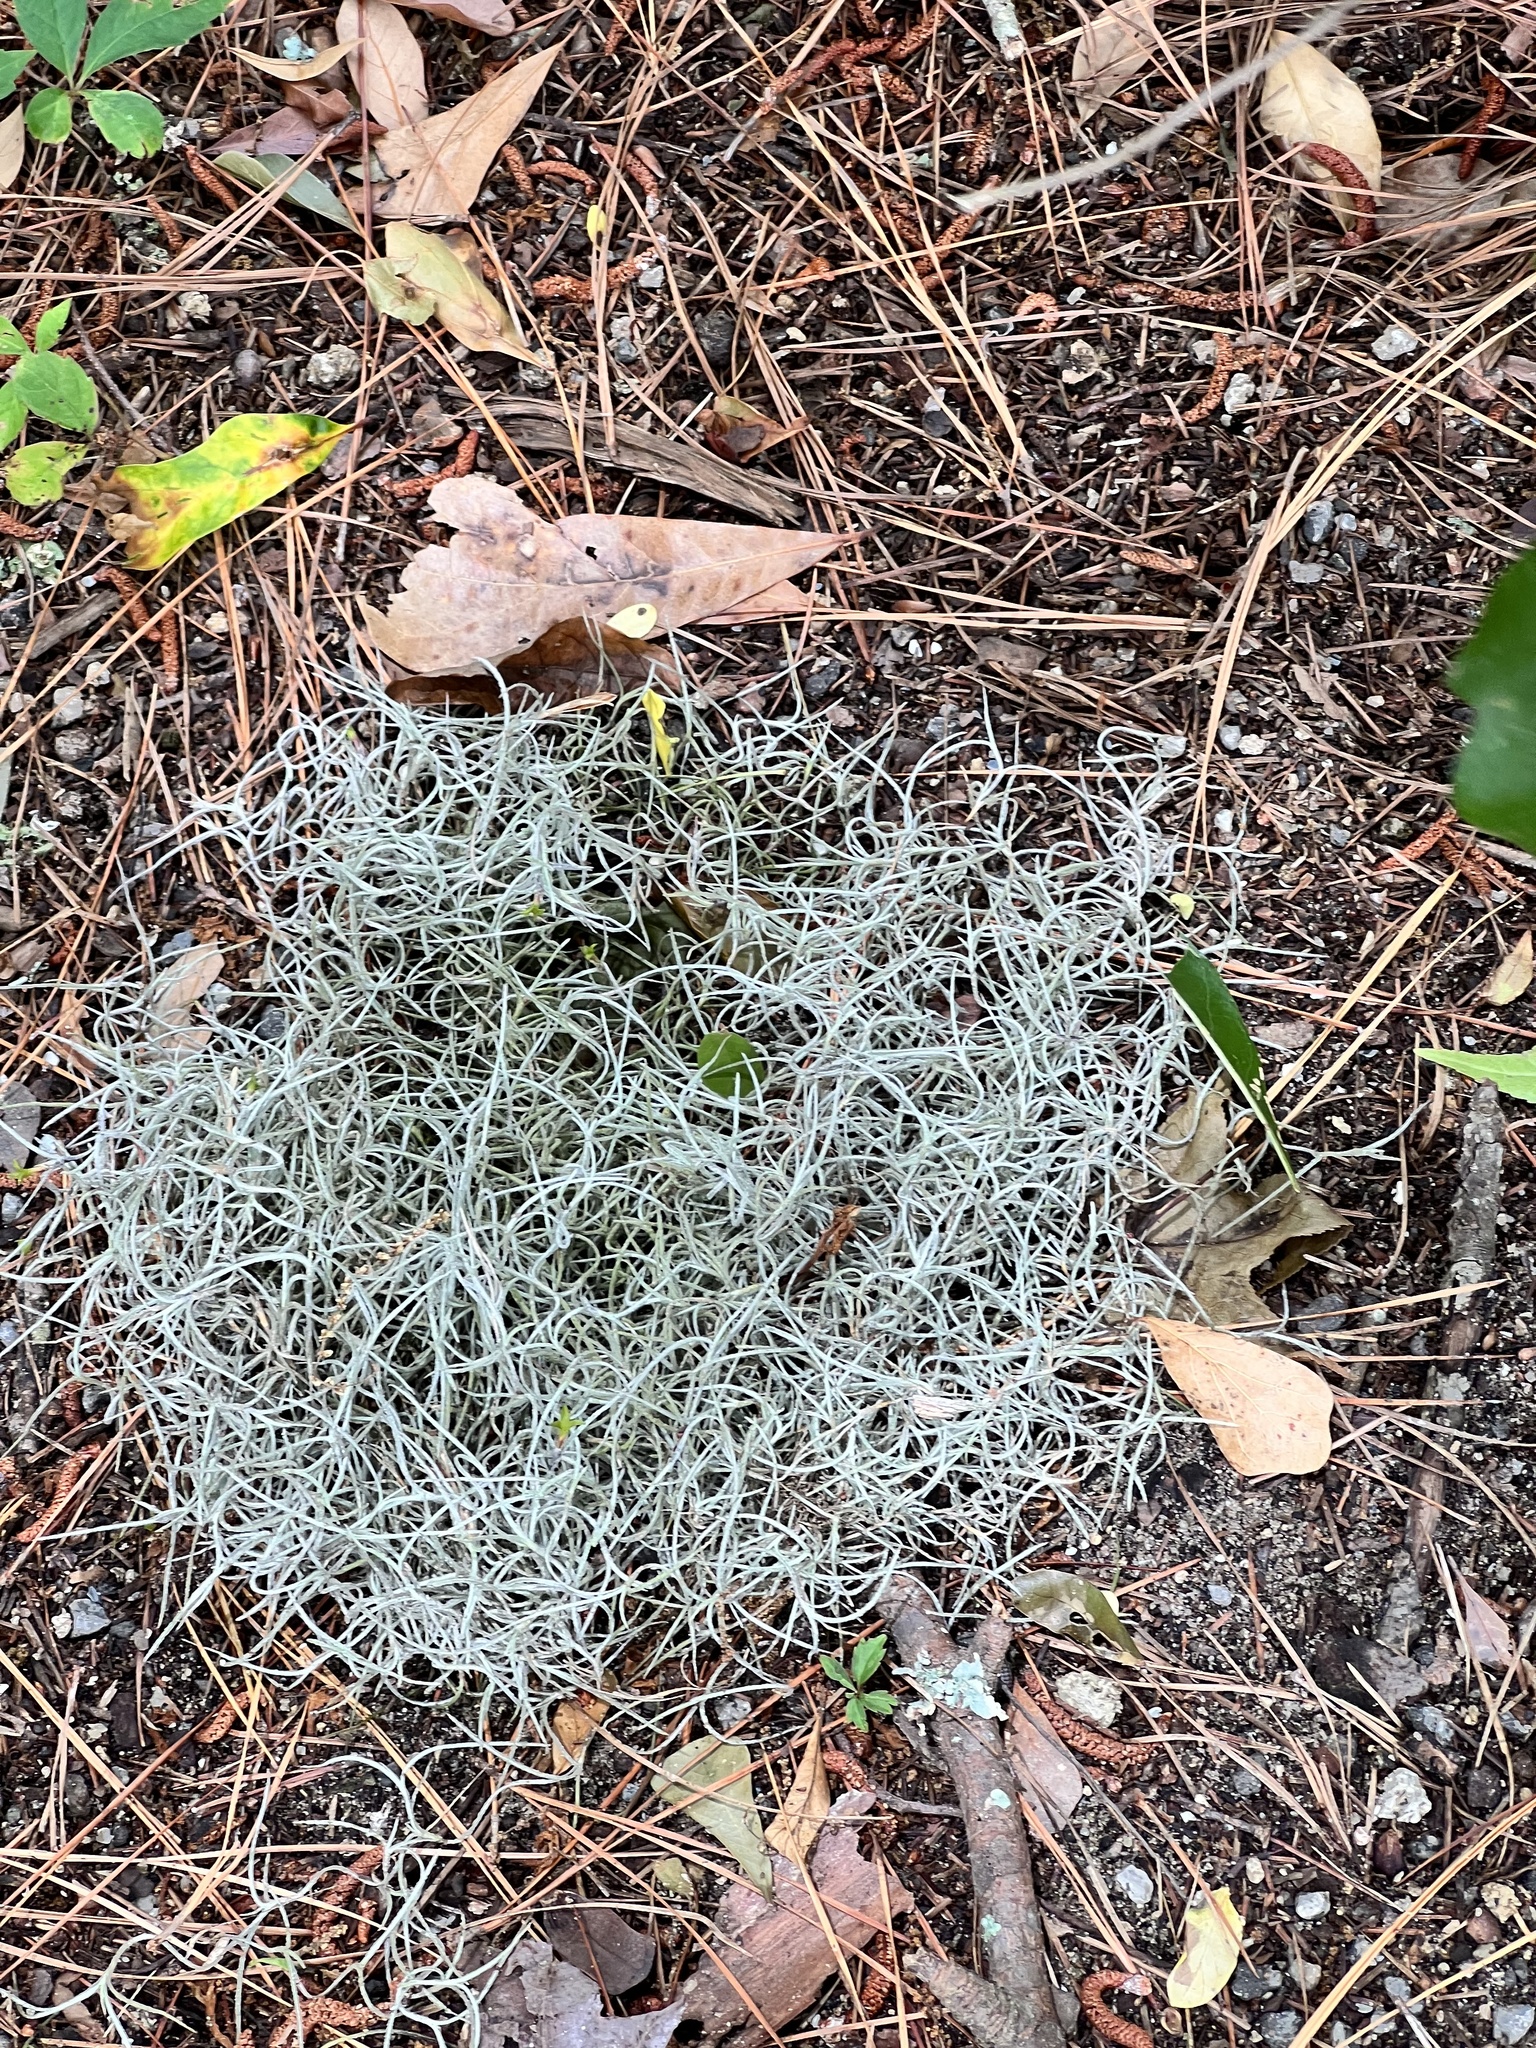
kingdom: Plantae
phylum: Tracheophyta
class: Liliopsida
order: Poales
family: Bromeliaceae
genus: Tillandsia
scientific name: Tillandsia usneoides
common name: Spanish moss
